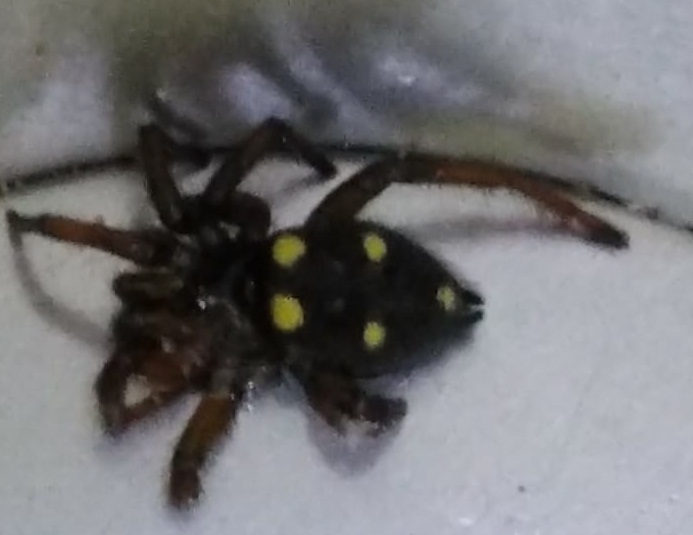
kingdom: Animalia
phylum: Arthropoda
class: Arachnida
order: Araneae
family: Oecobiidae
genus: Uroctea
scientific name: Uroctea durandi
